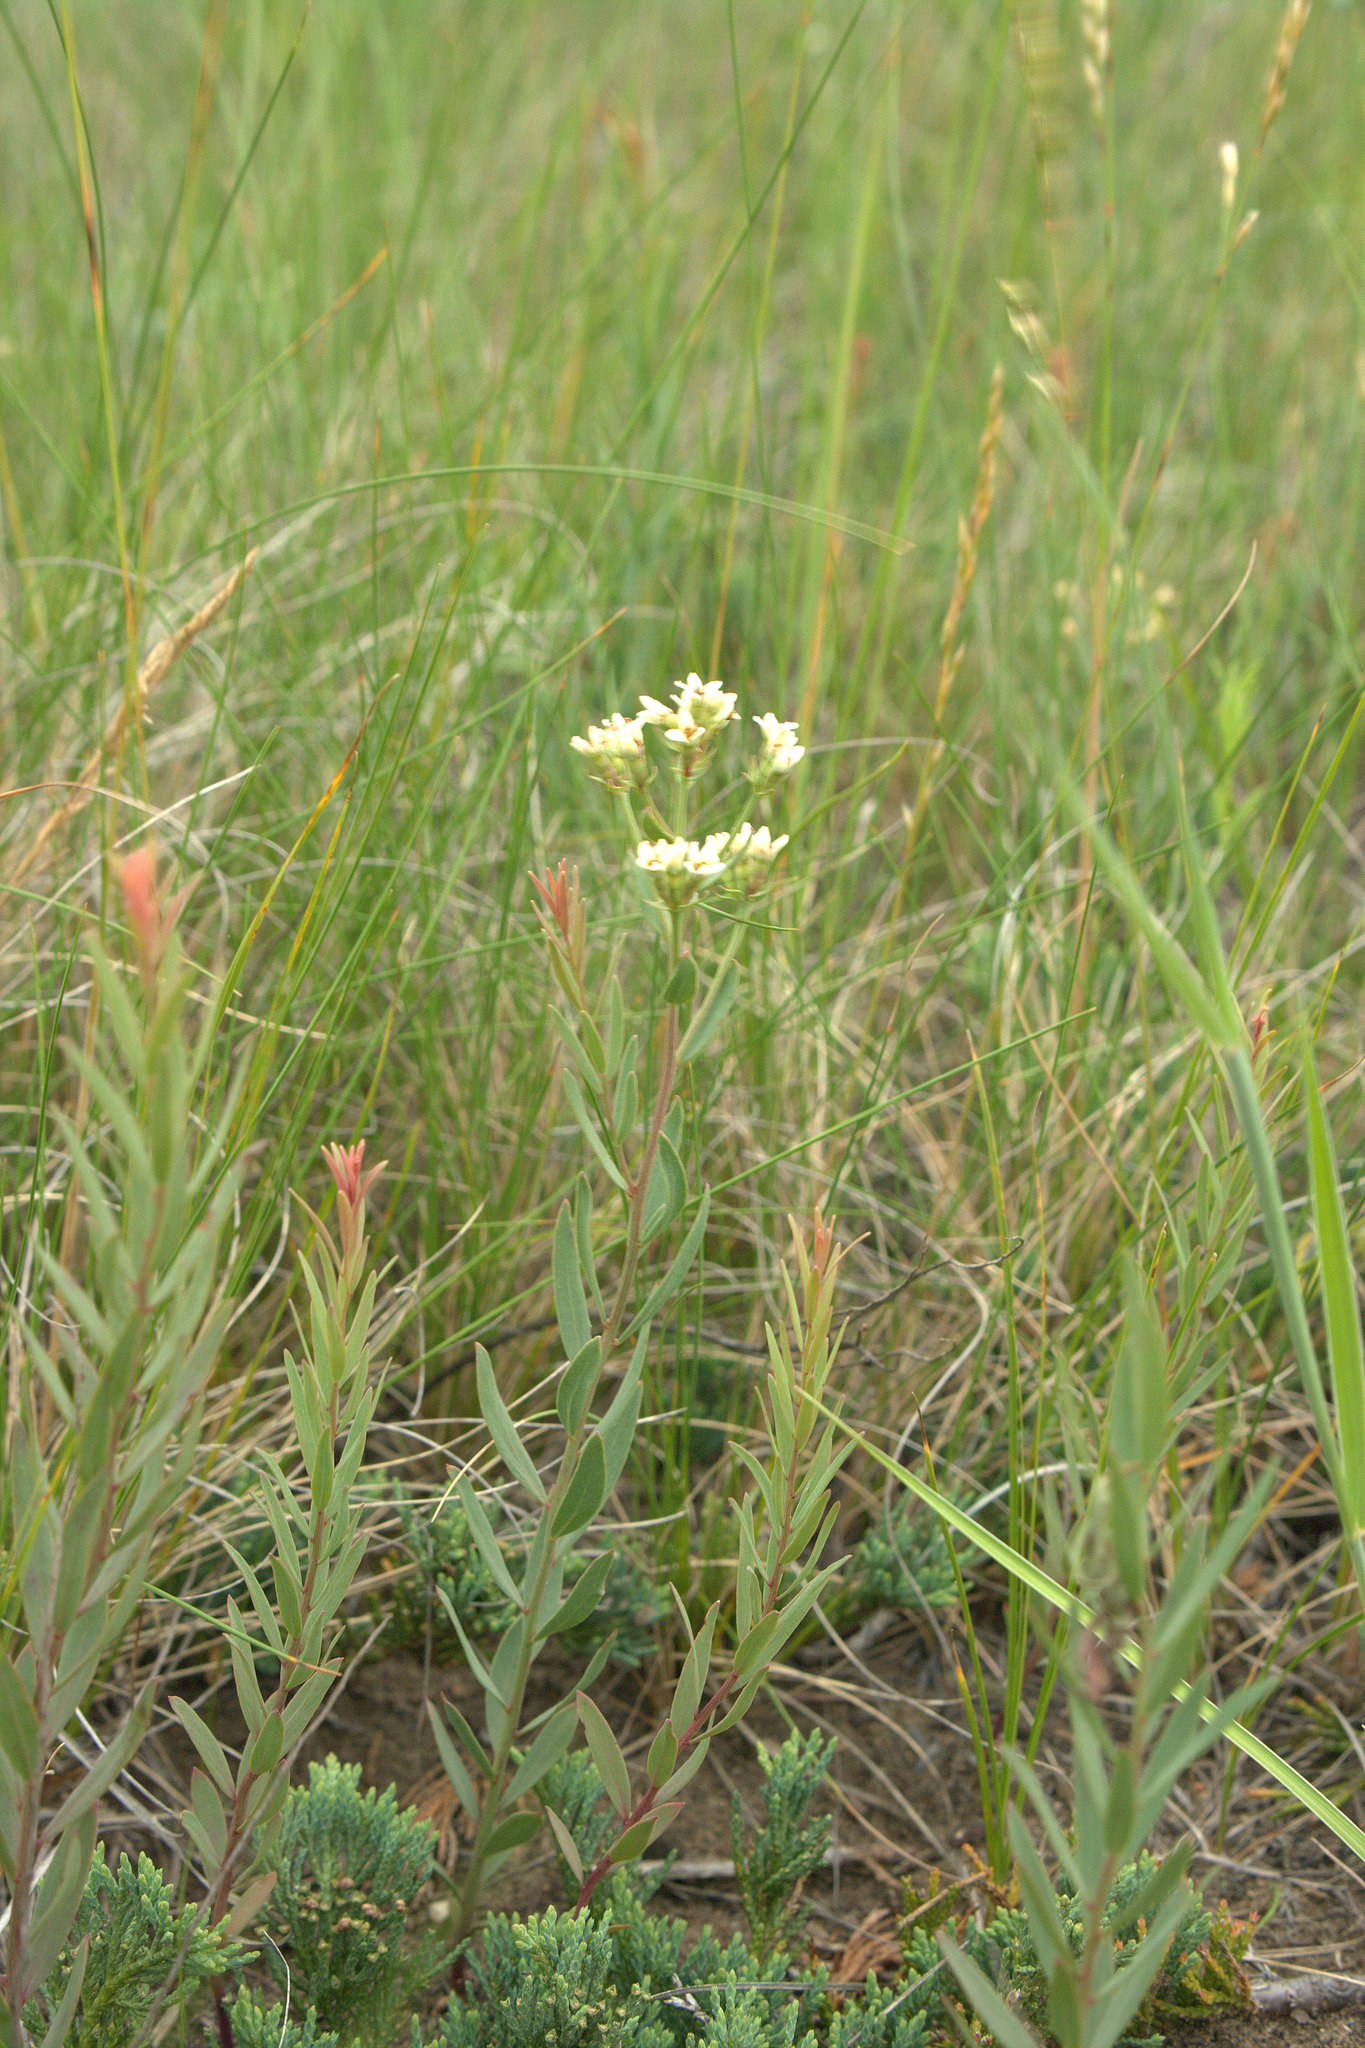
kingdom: Plantae
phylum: Tracheophyta
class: Magnoliopsida
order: Santalales
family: Comandraceae
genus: Comandra
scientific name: Comandra umbellata
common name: Bastard toadflax
